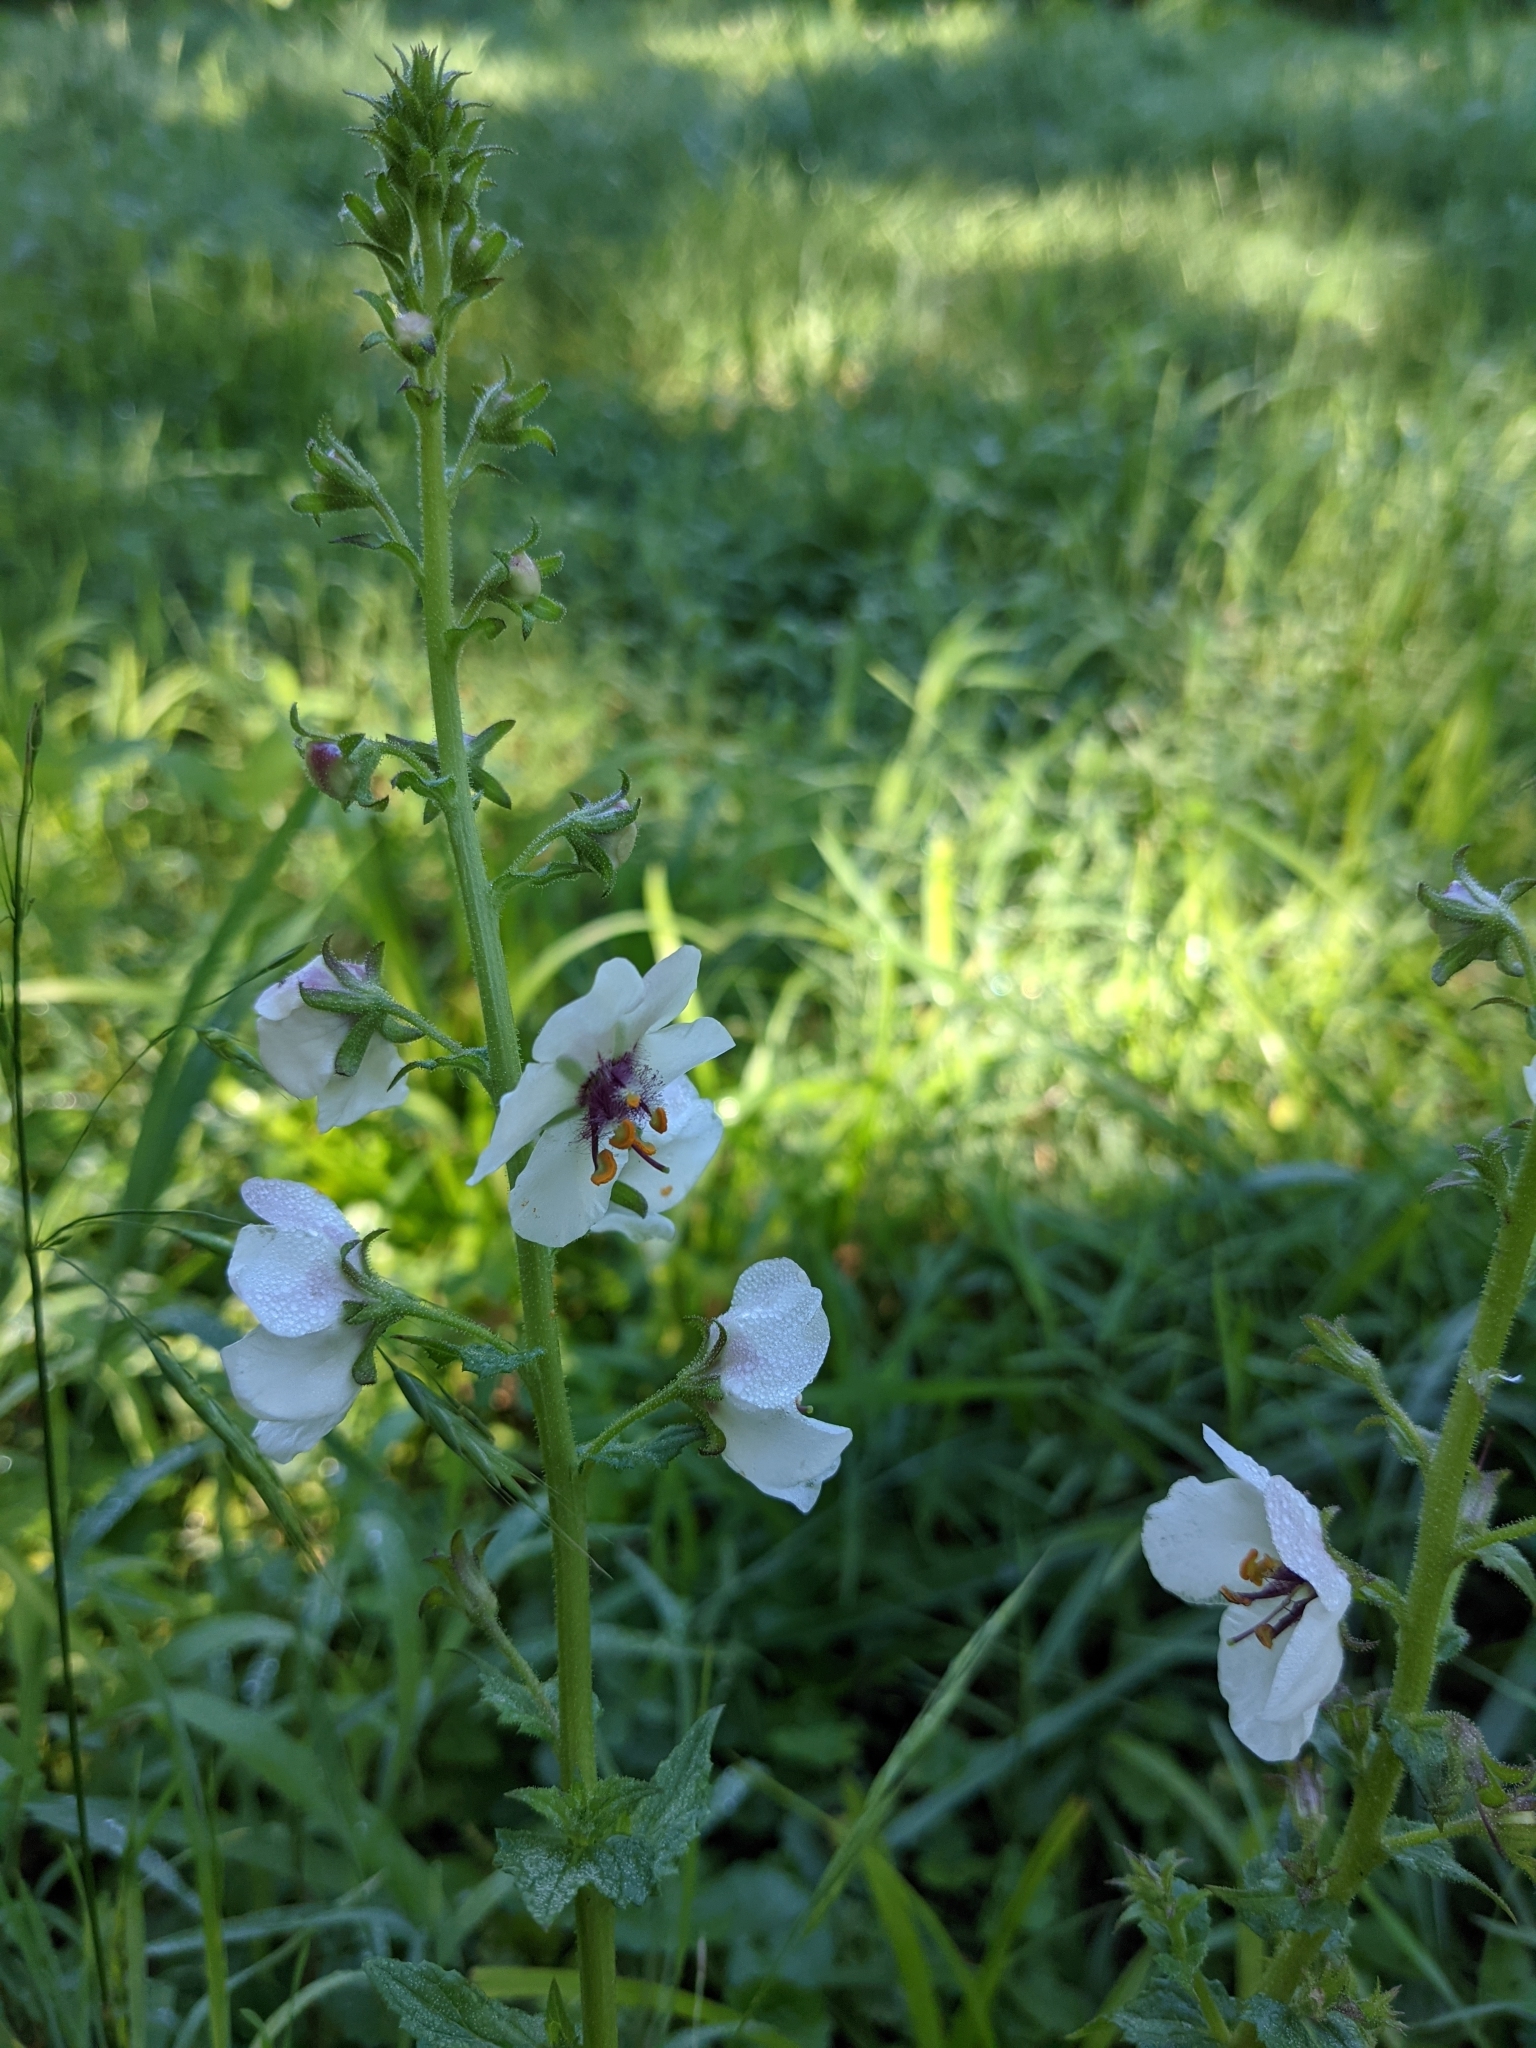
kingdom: Plantae
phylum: Tracheophyta
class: Magnoliopsida
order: Lamiales
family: Scrophulariaceae
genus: Verbascum
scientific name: Verbascum blattaria
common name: Moth mullein
